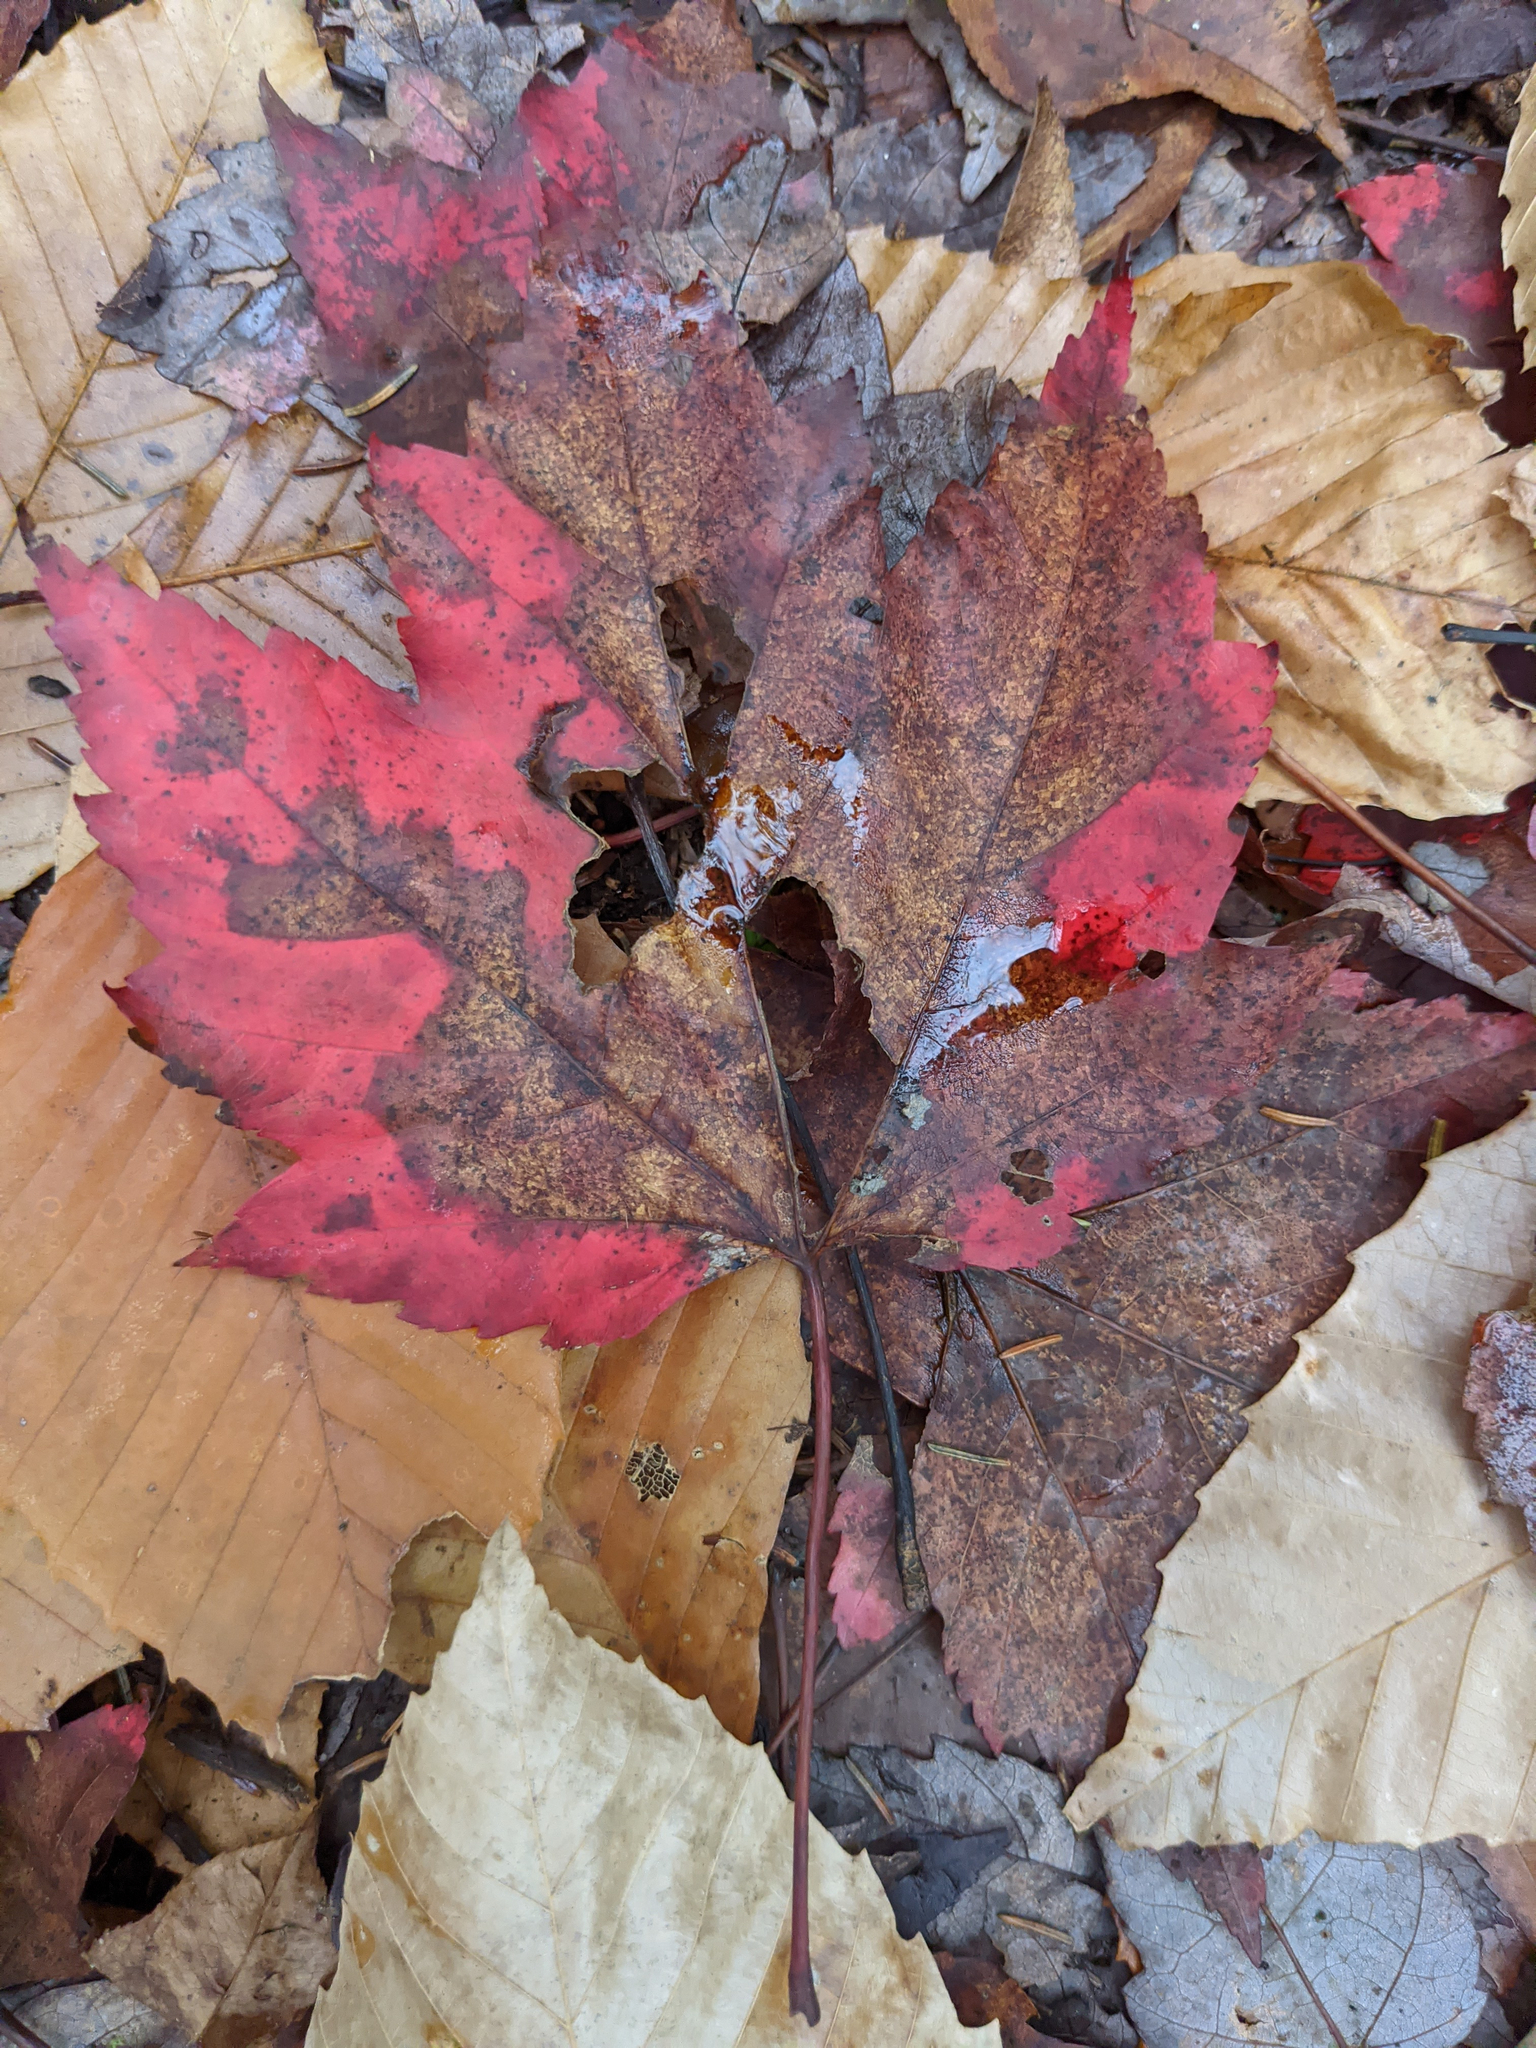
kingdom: Plantae
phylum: Tracheophyta
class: Magnoliopsida
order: Sapindales
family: Sapindaceae
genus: Acer
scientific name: Acer rubrum
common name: Red maple
